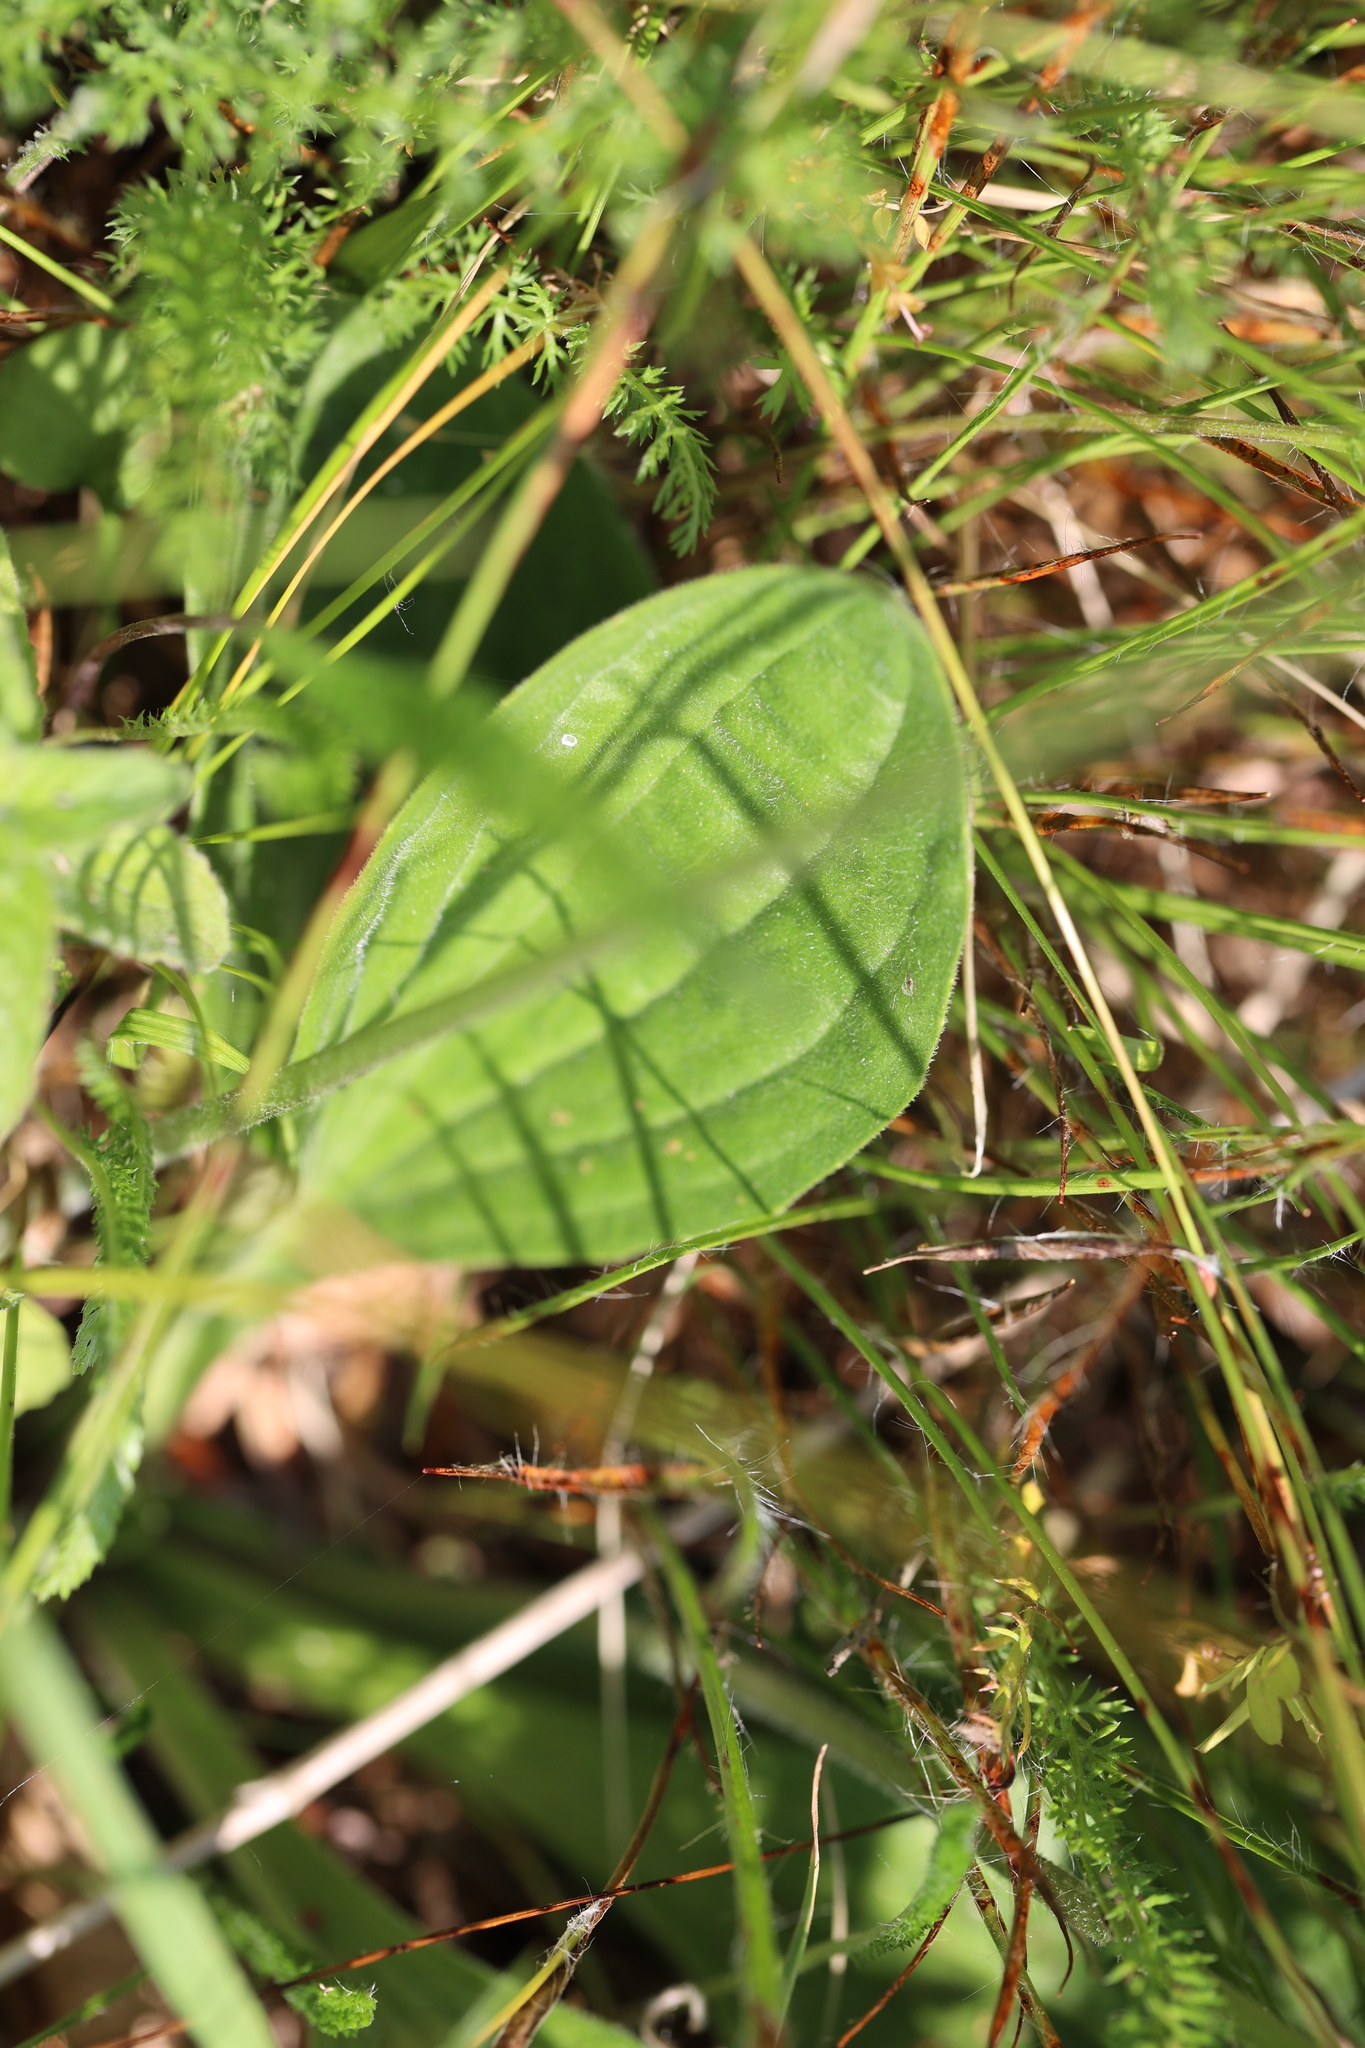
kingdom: Plantae
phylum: Tracheophyta
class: Magnoliopsida
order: Lamiales
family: Plantaginaceae
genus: Plantago
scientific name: Plantago media
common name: Hoary plantain
